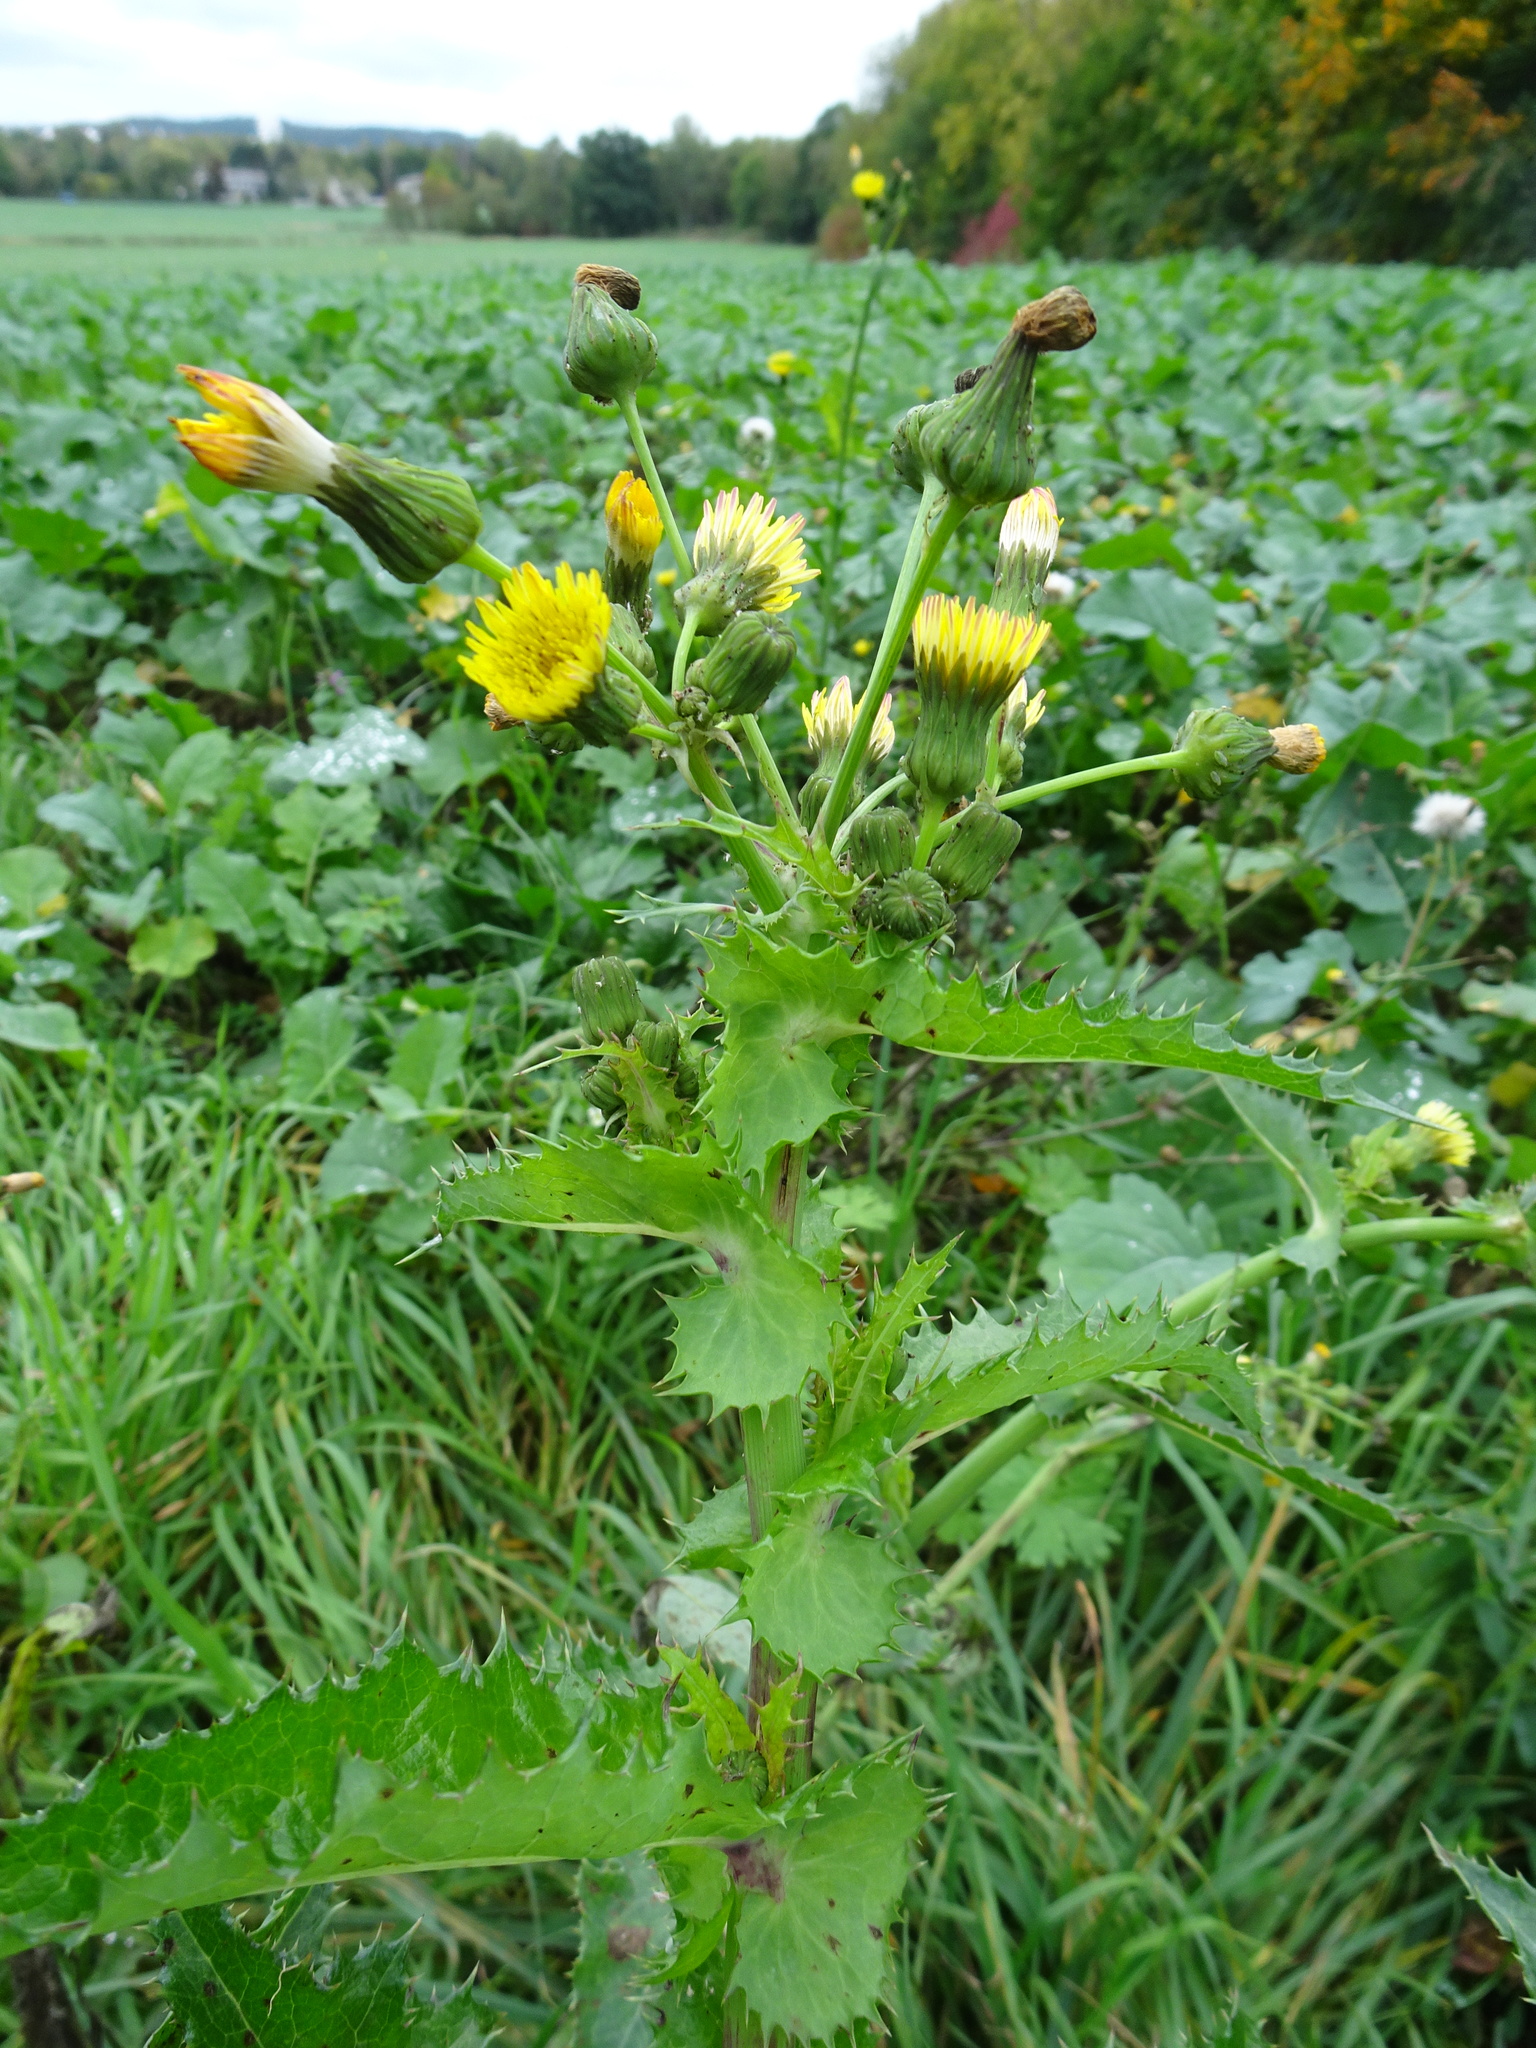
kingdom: Plantae
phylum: Tracheophyta
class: Magnoliopsida
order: Asterales
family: Asteraceae
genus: Sonchus
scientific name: Sonchus asper
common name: Prickly sow-thistle
